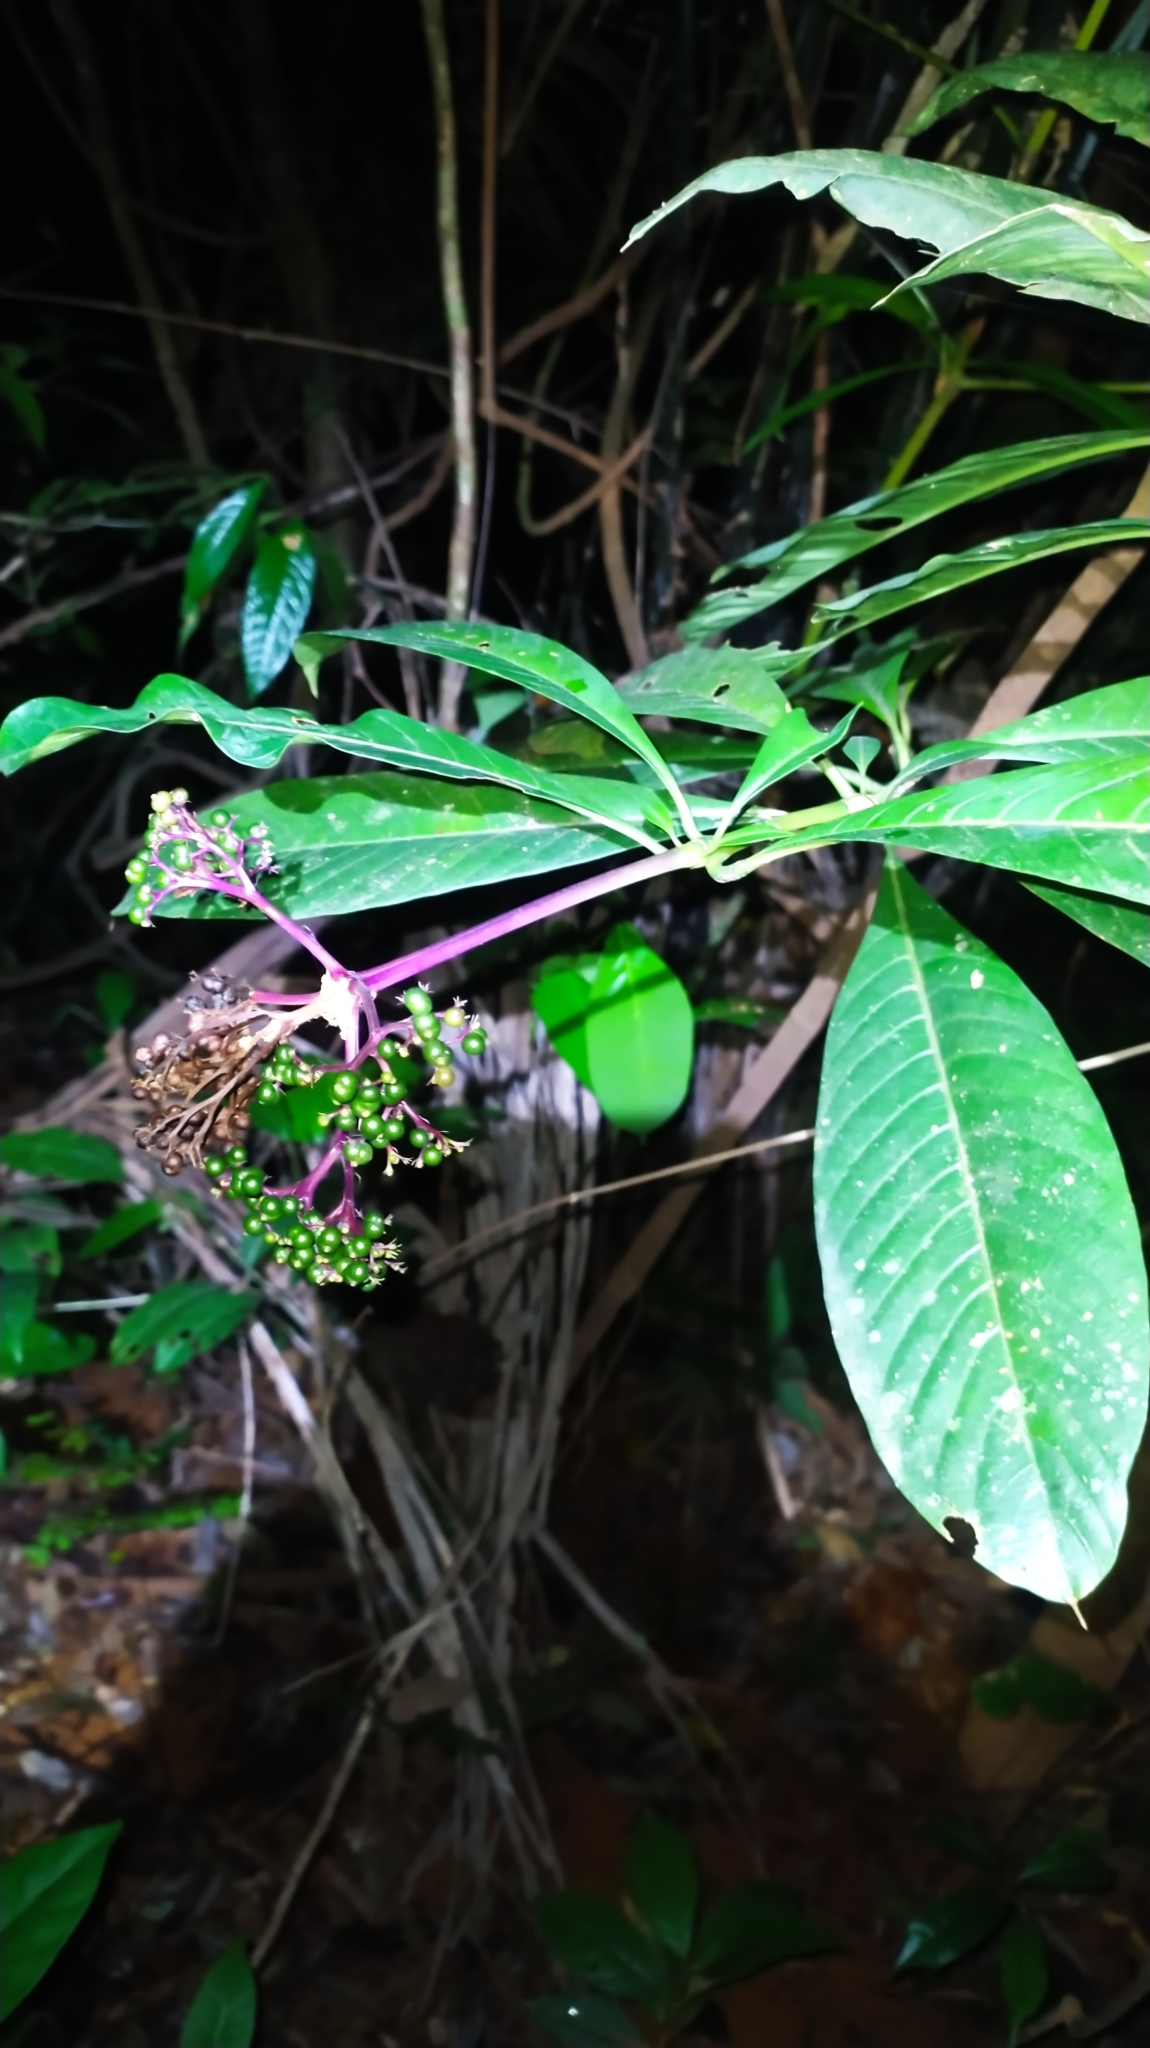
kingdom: Plantae
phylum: Tracheophyta
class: Magnoliopsida
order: Gentianales
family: Rubiaceae
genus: Palicourea
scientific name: Palicourea quadrifolia
